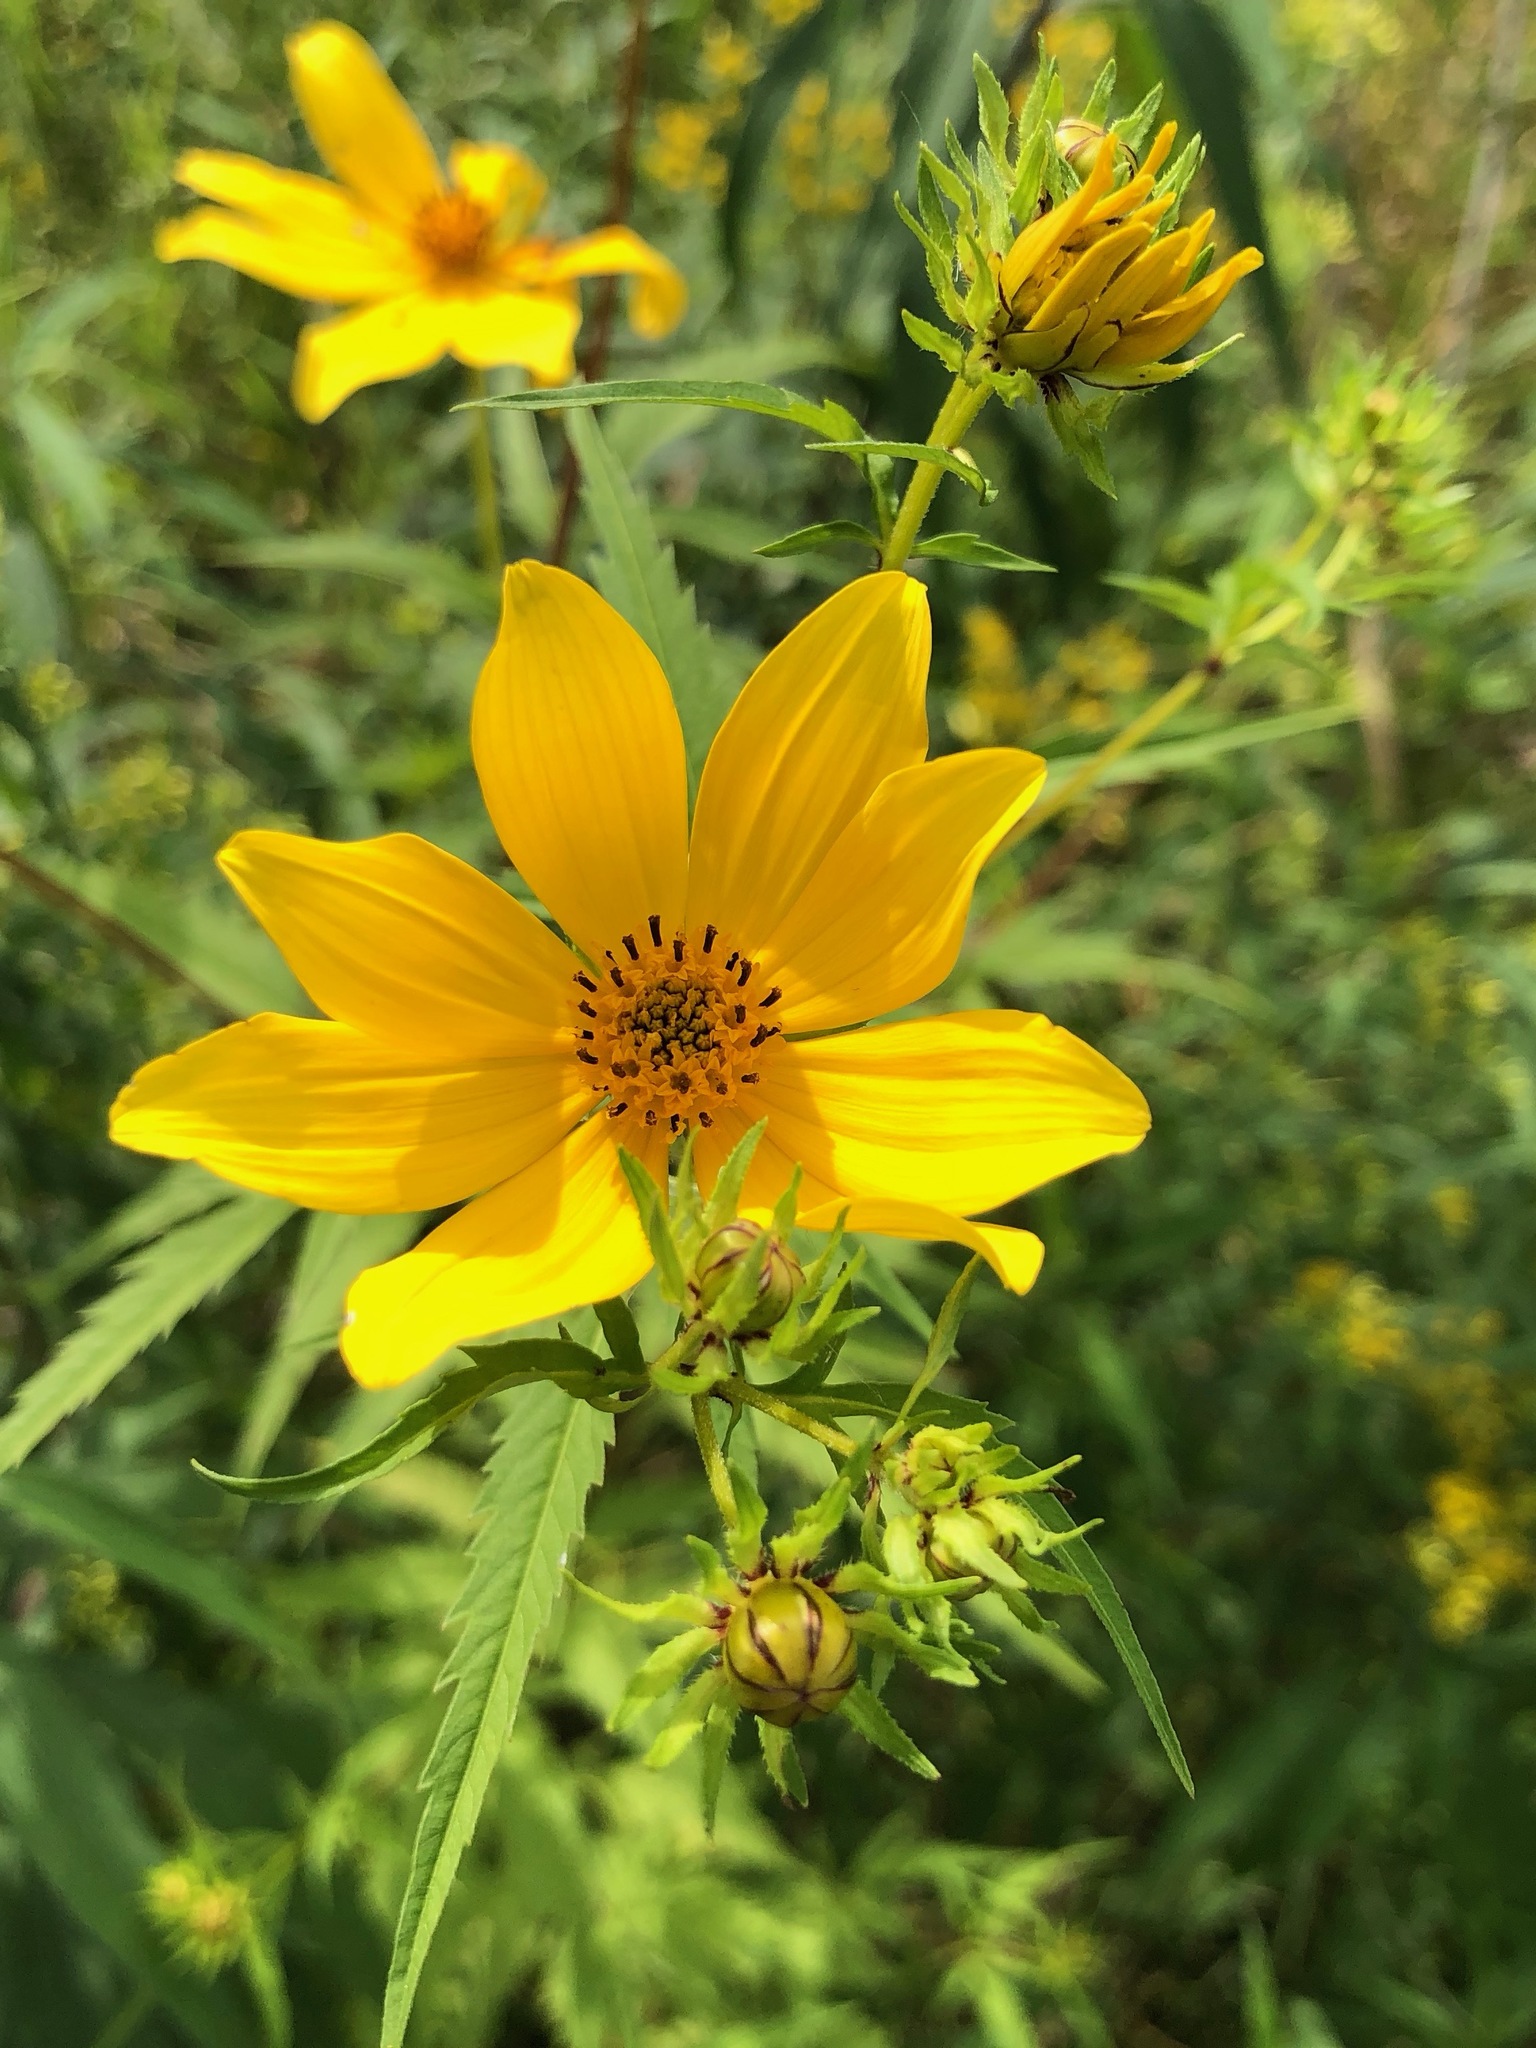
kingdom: Plantae
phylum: Tracheophyta
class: Magnoliopsida
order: Asterales
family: Asteraceae
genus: Bidens
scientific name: Bidens aristosa
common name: Western tickseed
